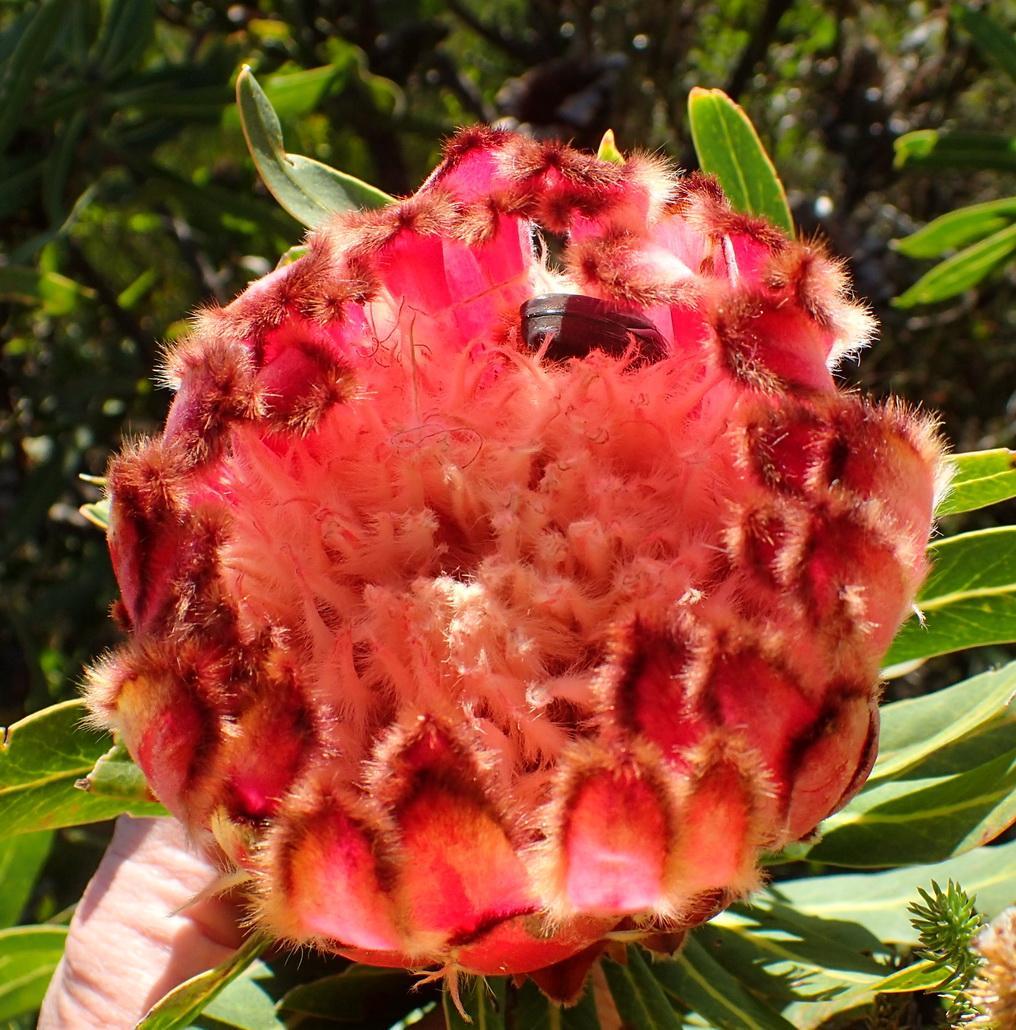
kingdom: Plantae
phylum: Tracheophyta
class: Magnoliopsida
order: Proteales
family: Proteaceae
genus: Protea
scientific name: Protea neriifolia
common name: Blue sugarbush
